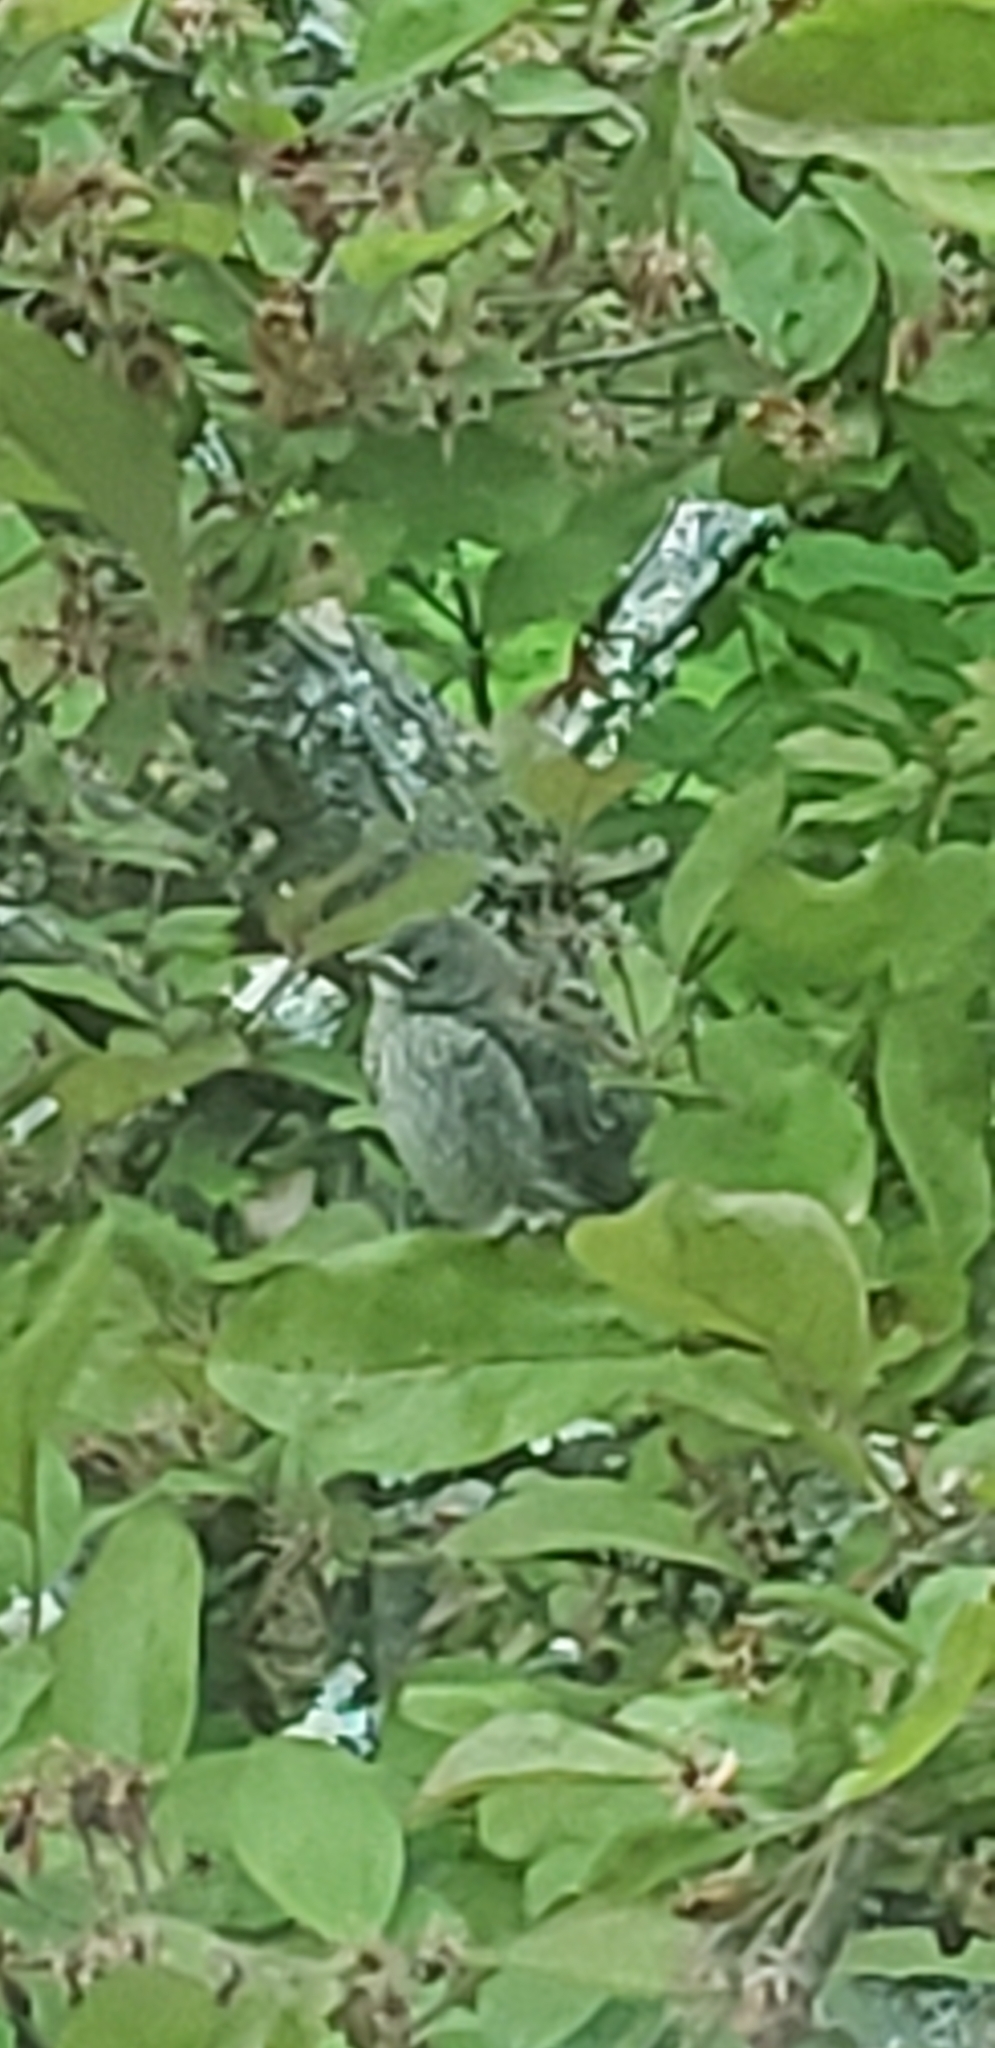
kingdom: Animalia
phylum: Chordata
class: Aves
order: Passeriformes
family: Icteridae
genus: Molothrus
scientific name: Molothrus ater
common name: Brown-headed cowbird
